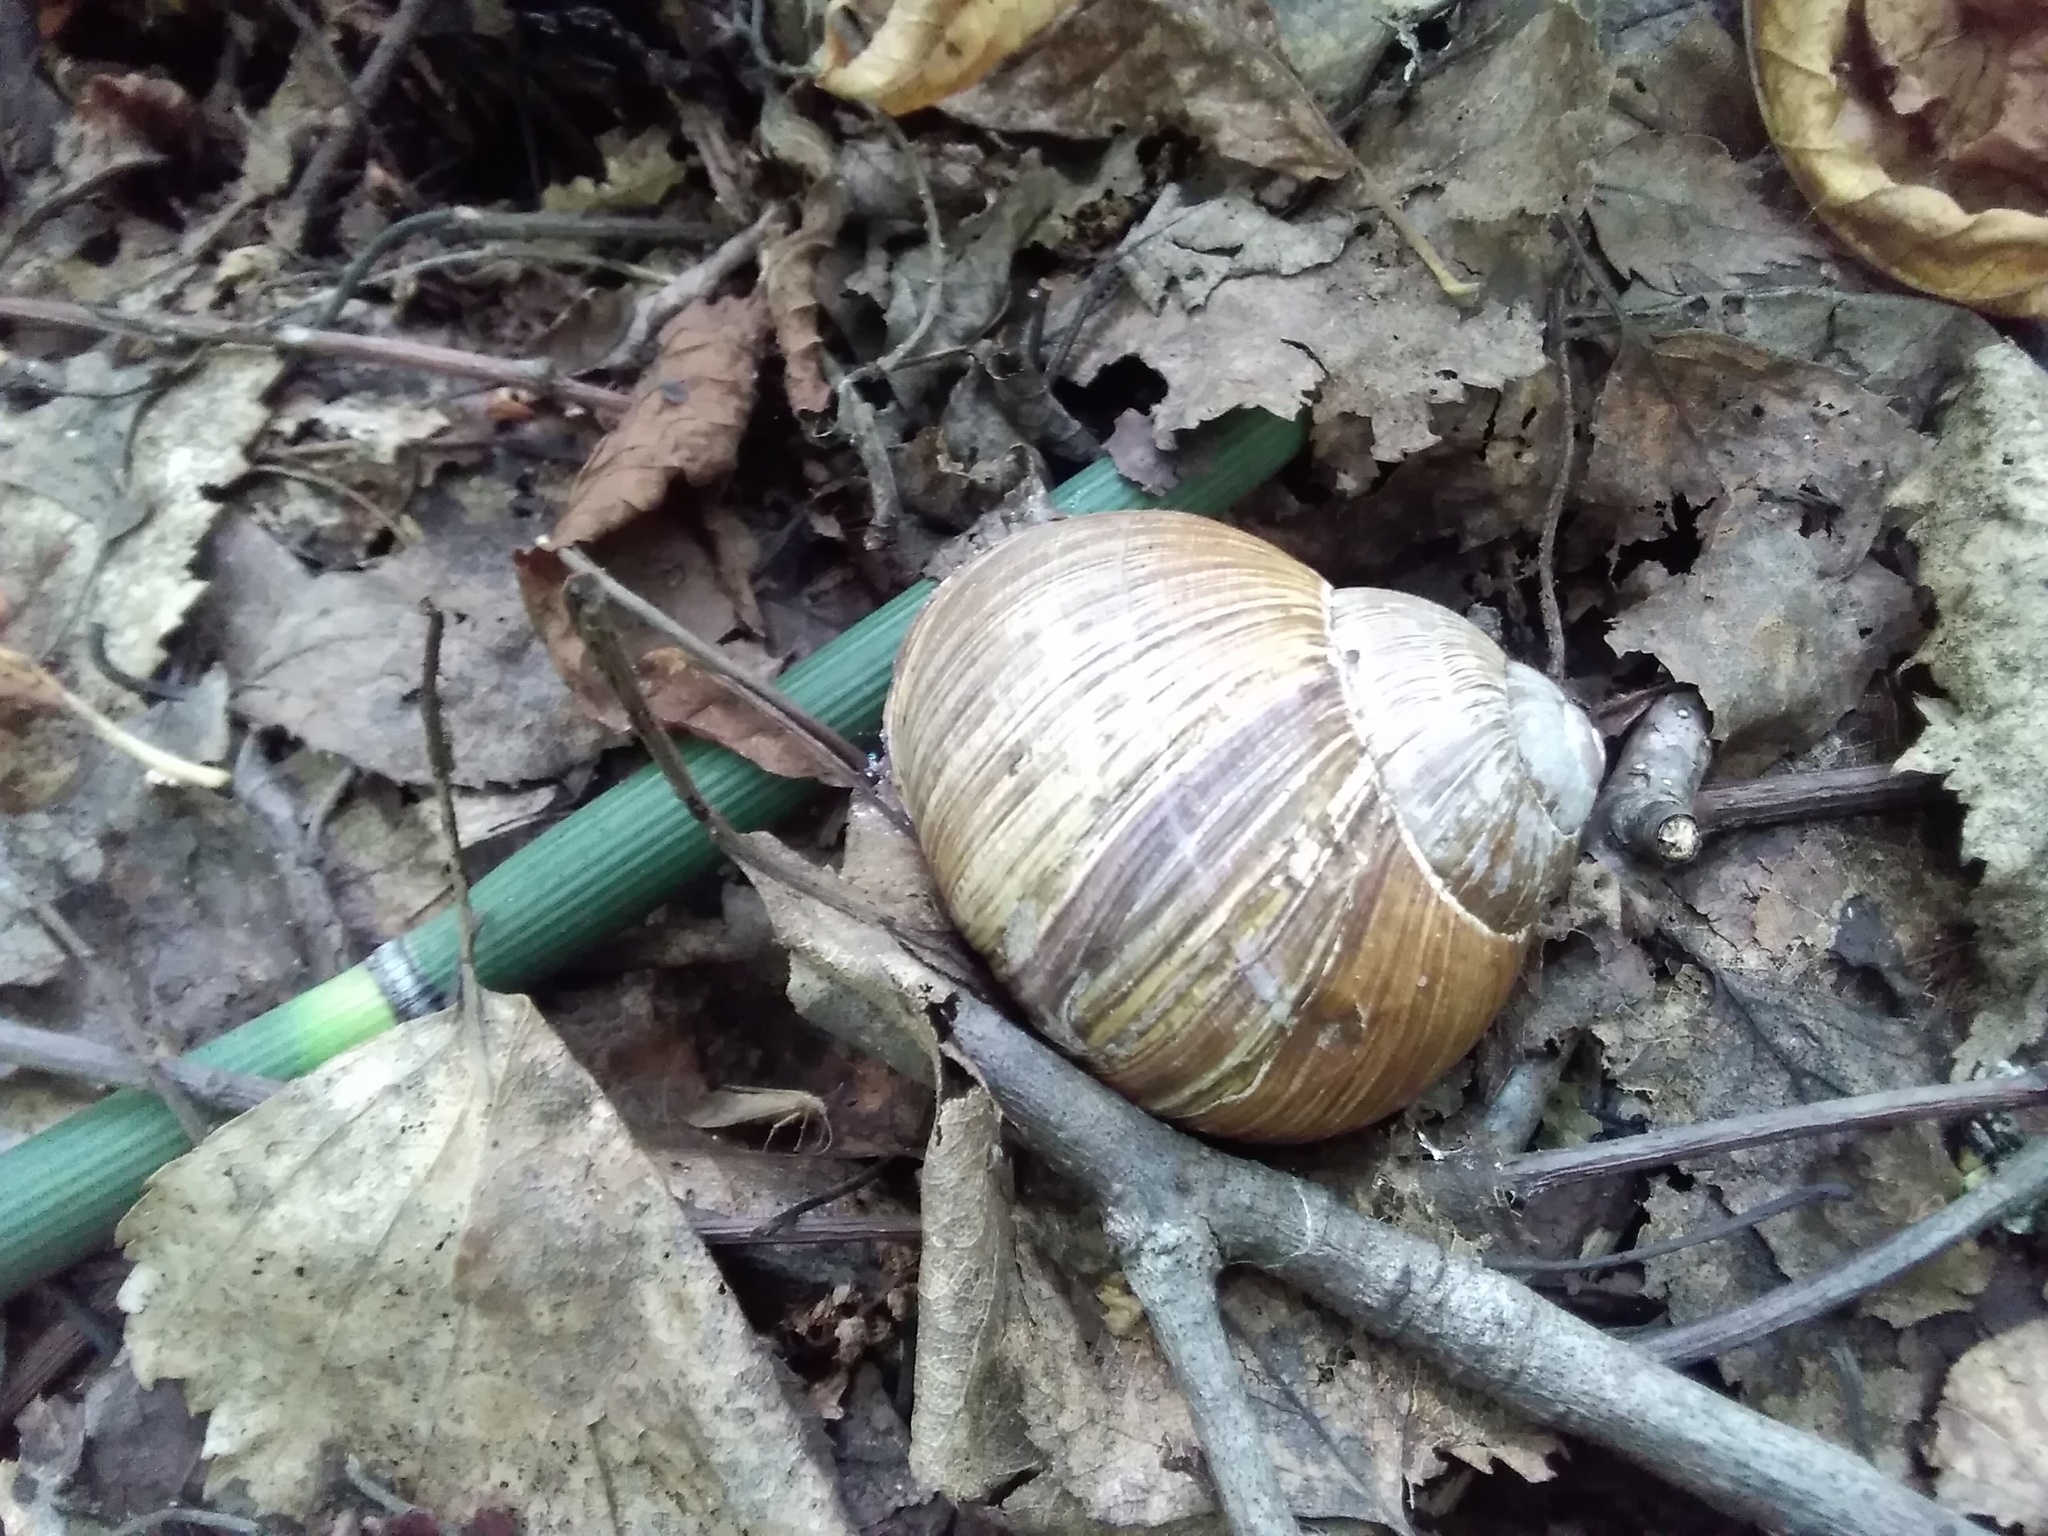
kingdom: Animalia
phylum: Mollusca
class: Gastropoda
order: Stylommatophora
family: Helicidae
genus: Helix
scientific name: Helix pomatia
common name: Roman snail
